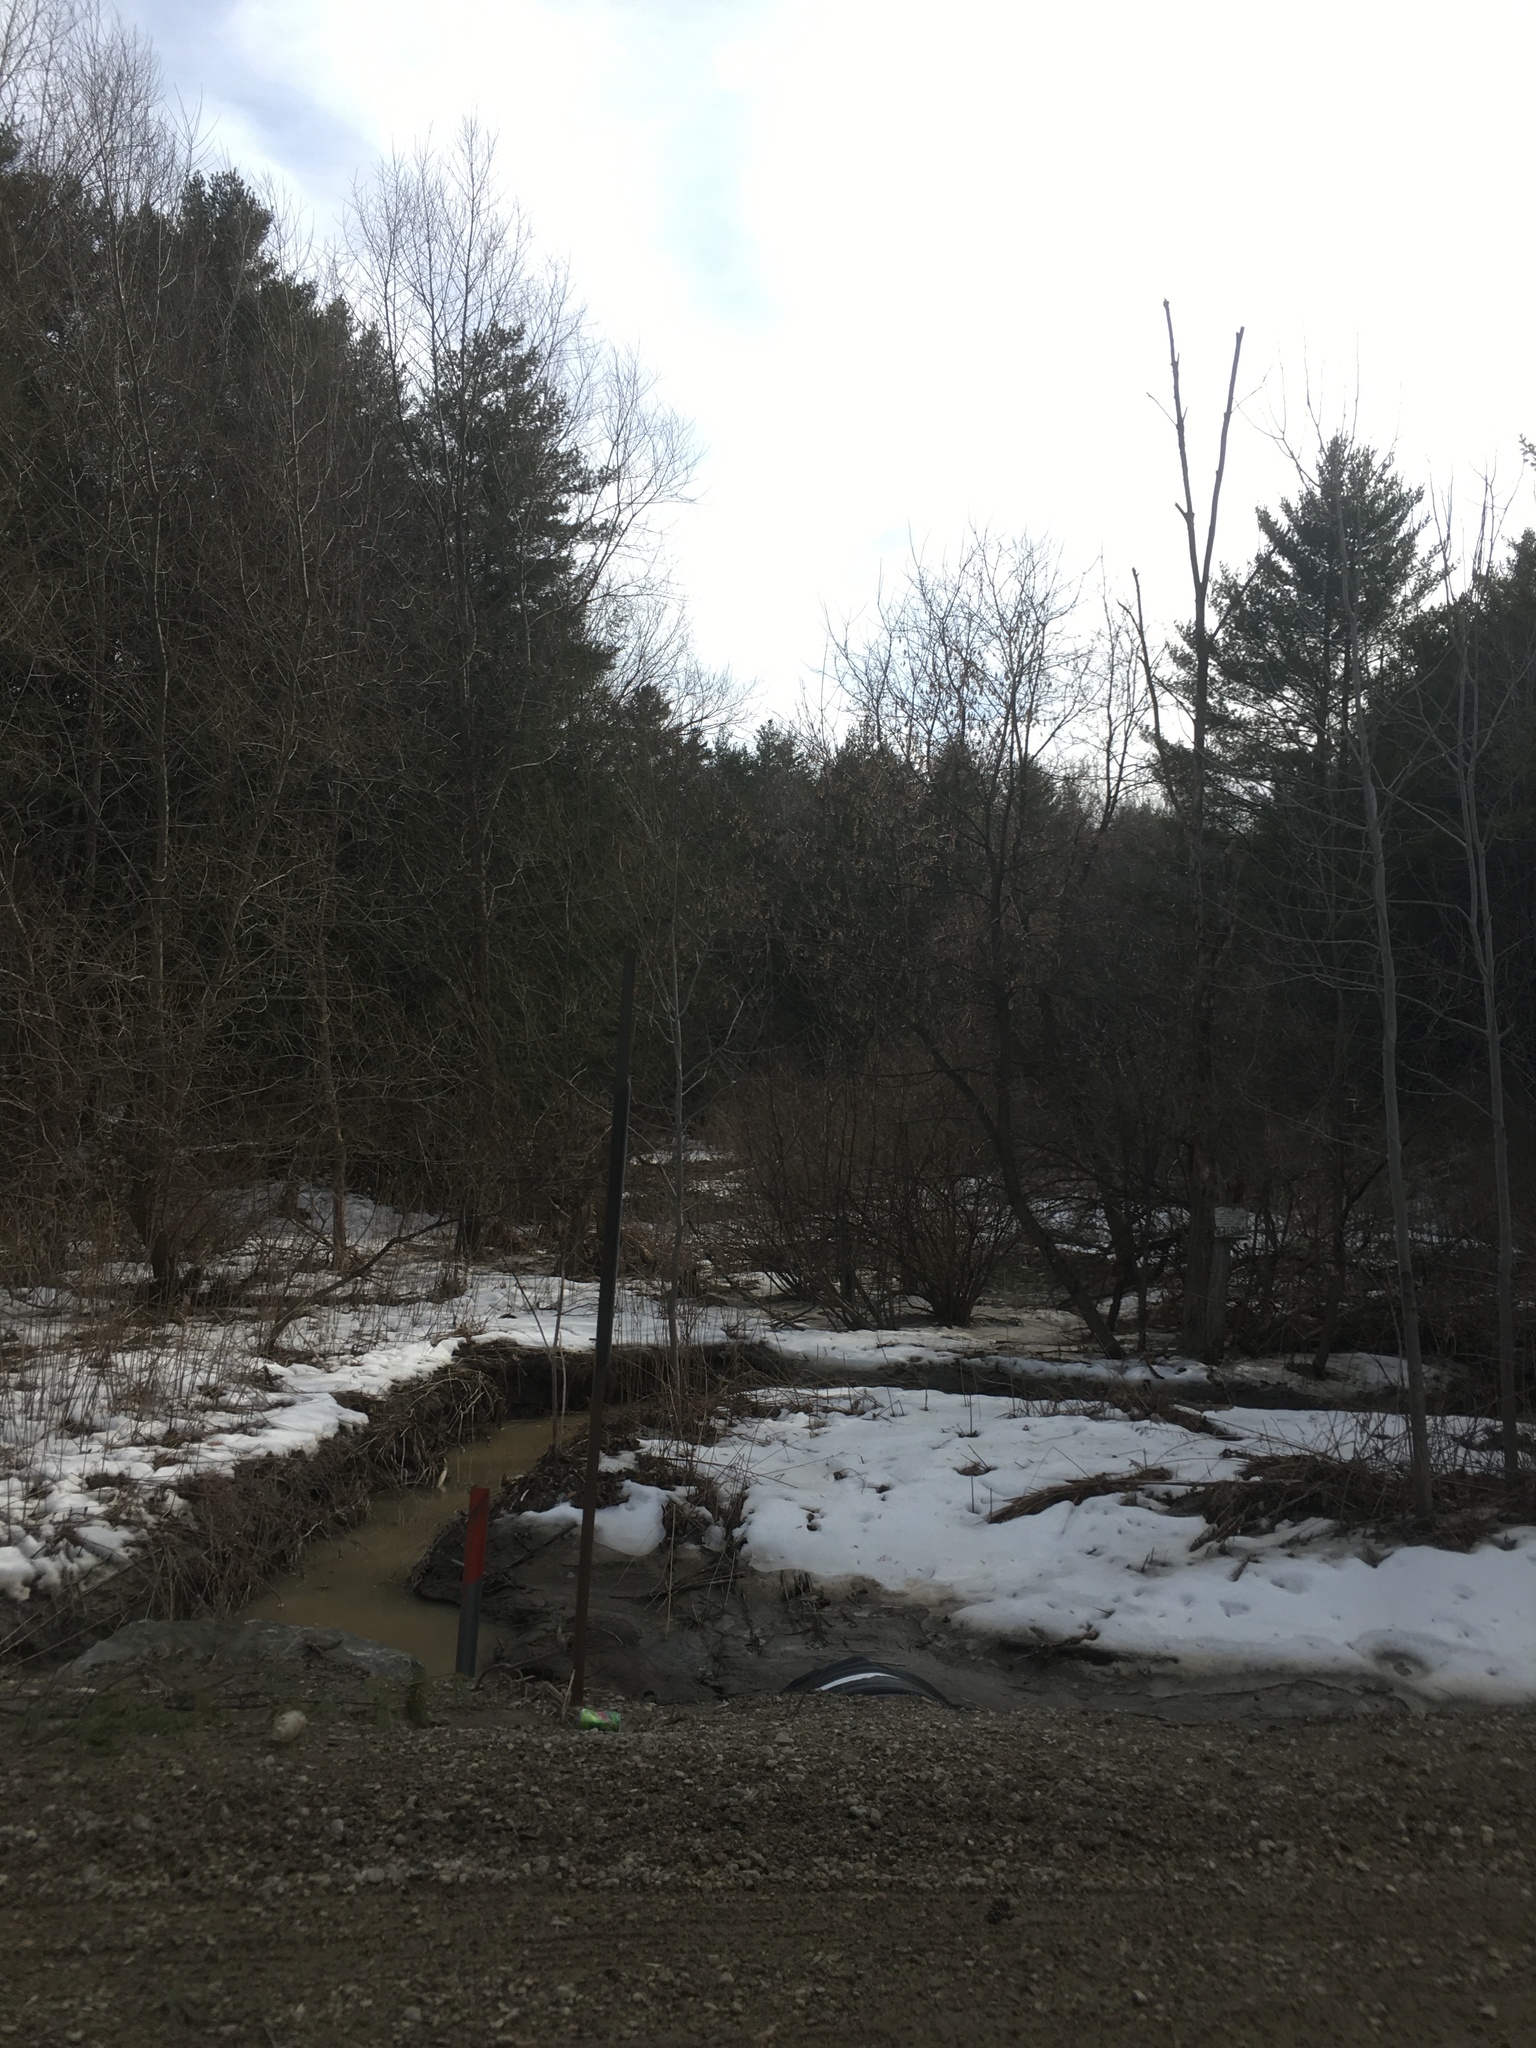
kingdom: Plantae
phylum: Tracheophyta
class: Magnoliopsida
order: Sapindales
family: Sapindaceae
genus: Acer
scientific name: Acer negundo
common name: Ashleaf maple
